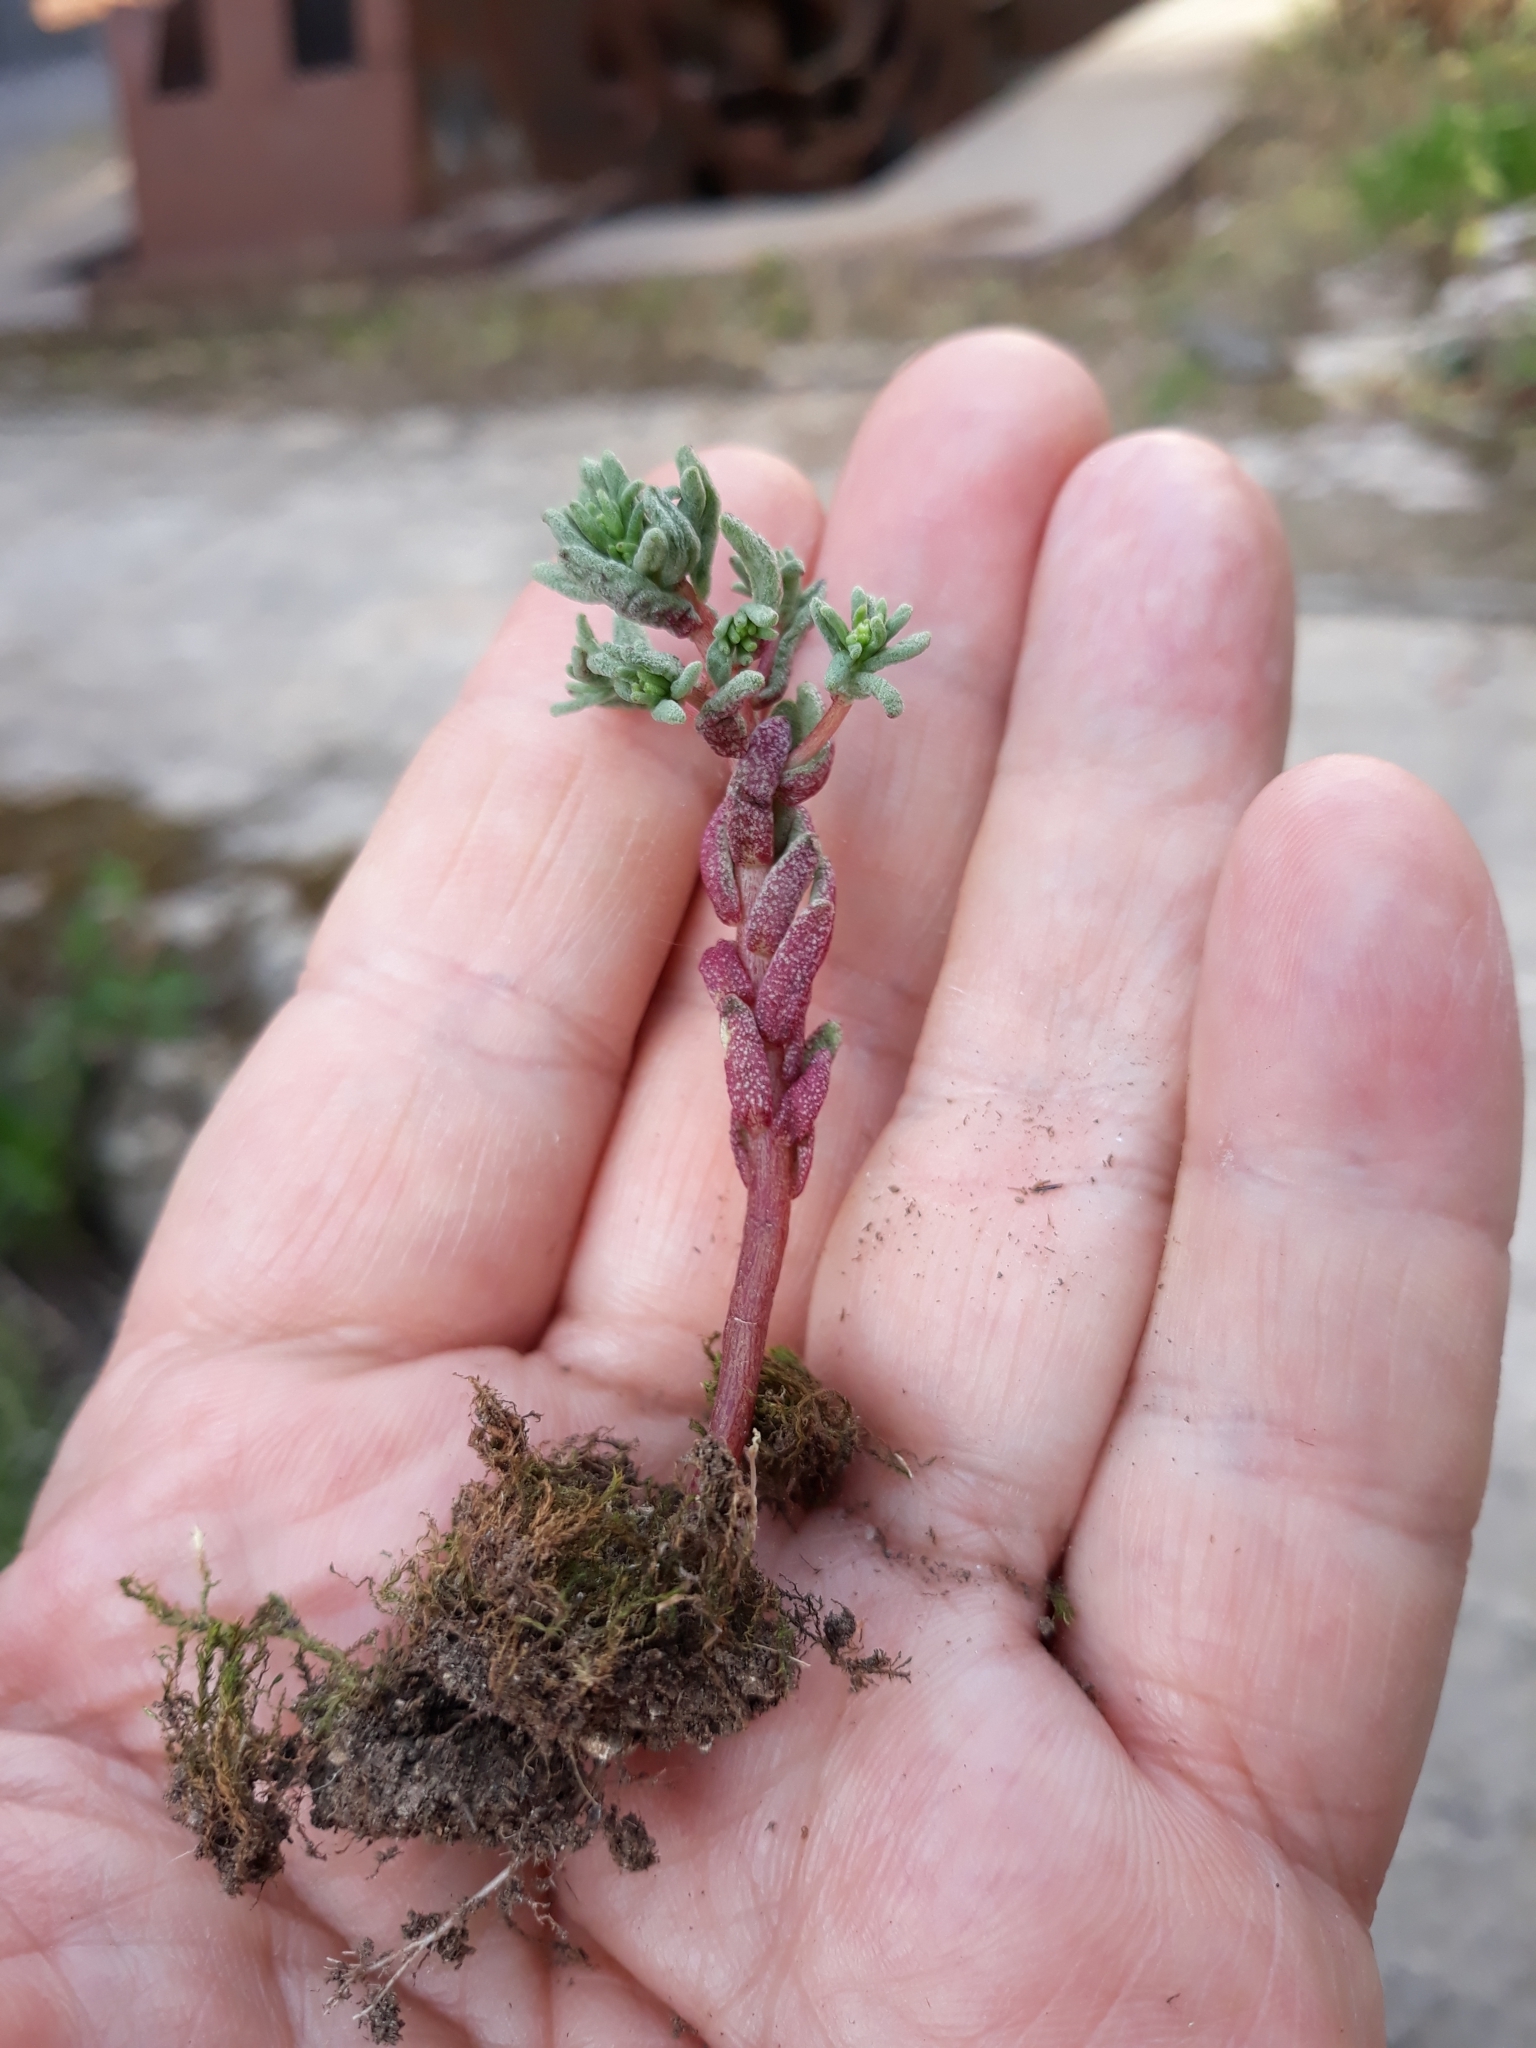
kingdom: Plantae
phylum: Tracheophyta
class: Magnoliopsida
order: Saxifragales
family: Crassulaceae
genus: Sedum
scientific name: Sedum caeruleum
